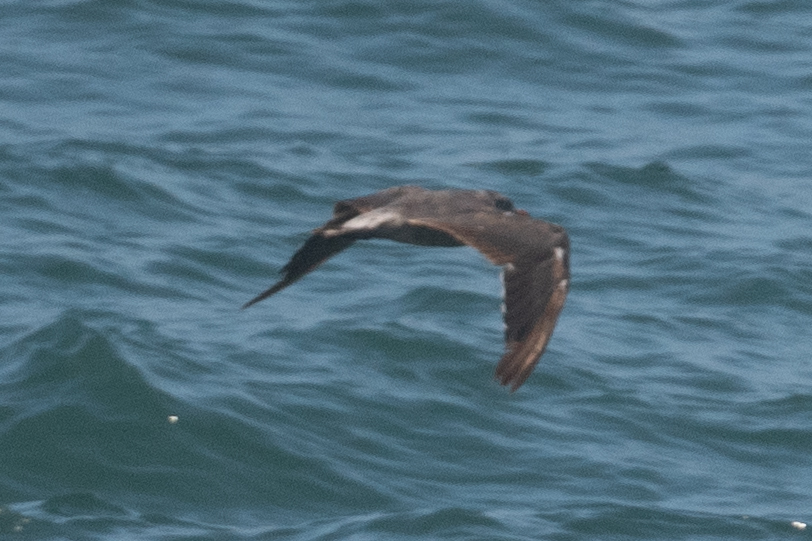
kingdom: Animalia
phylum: Chordata
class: Aves
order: Charadriiformes
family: Laridae
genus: Larus
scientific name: Larus heermanni
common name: Heermann's gull
